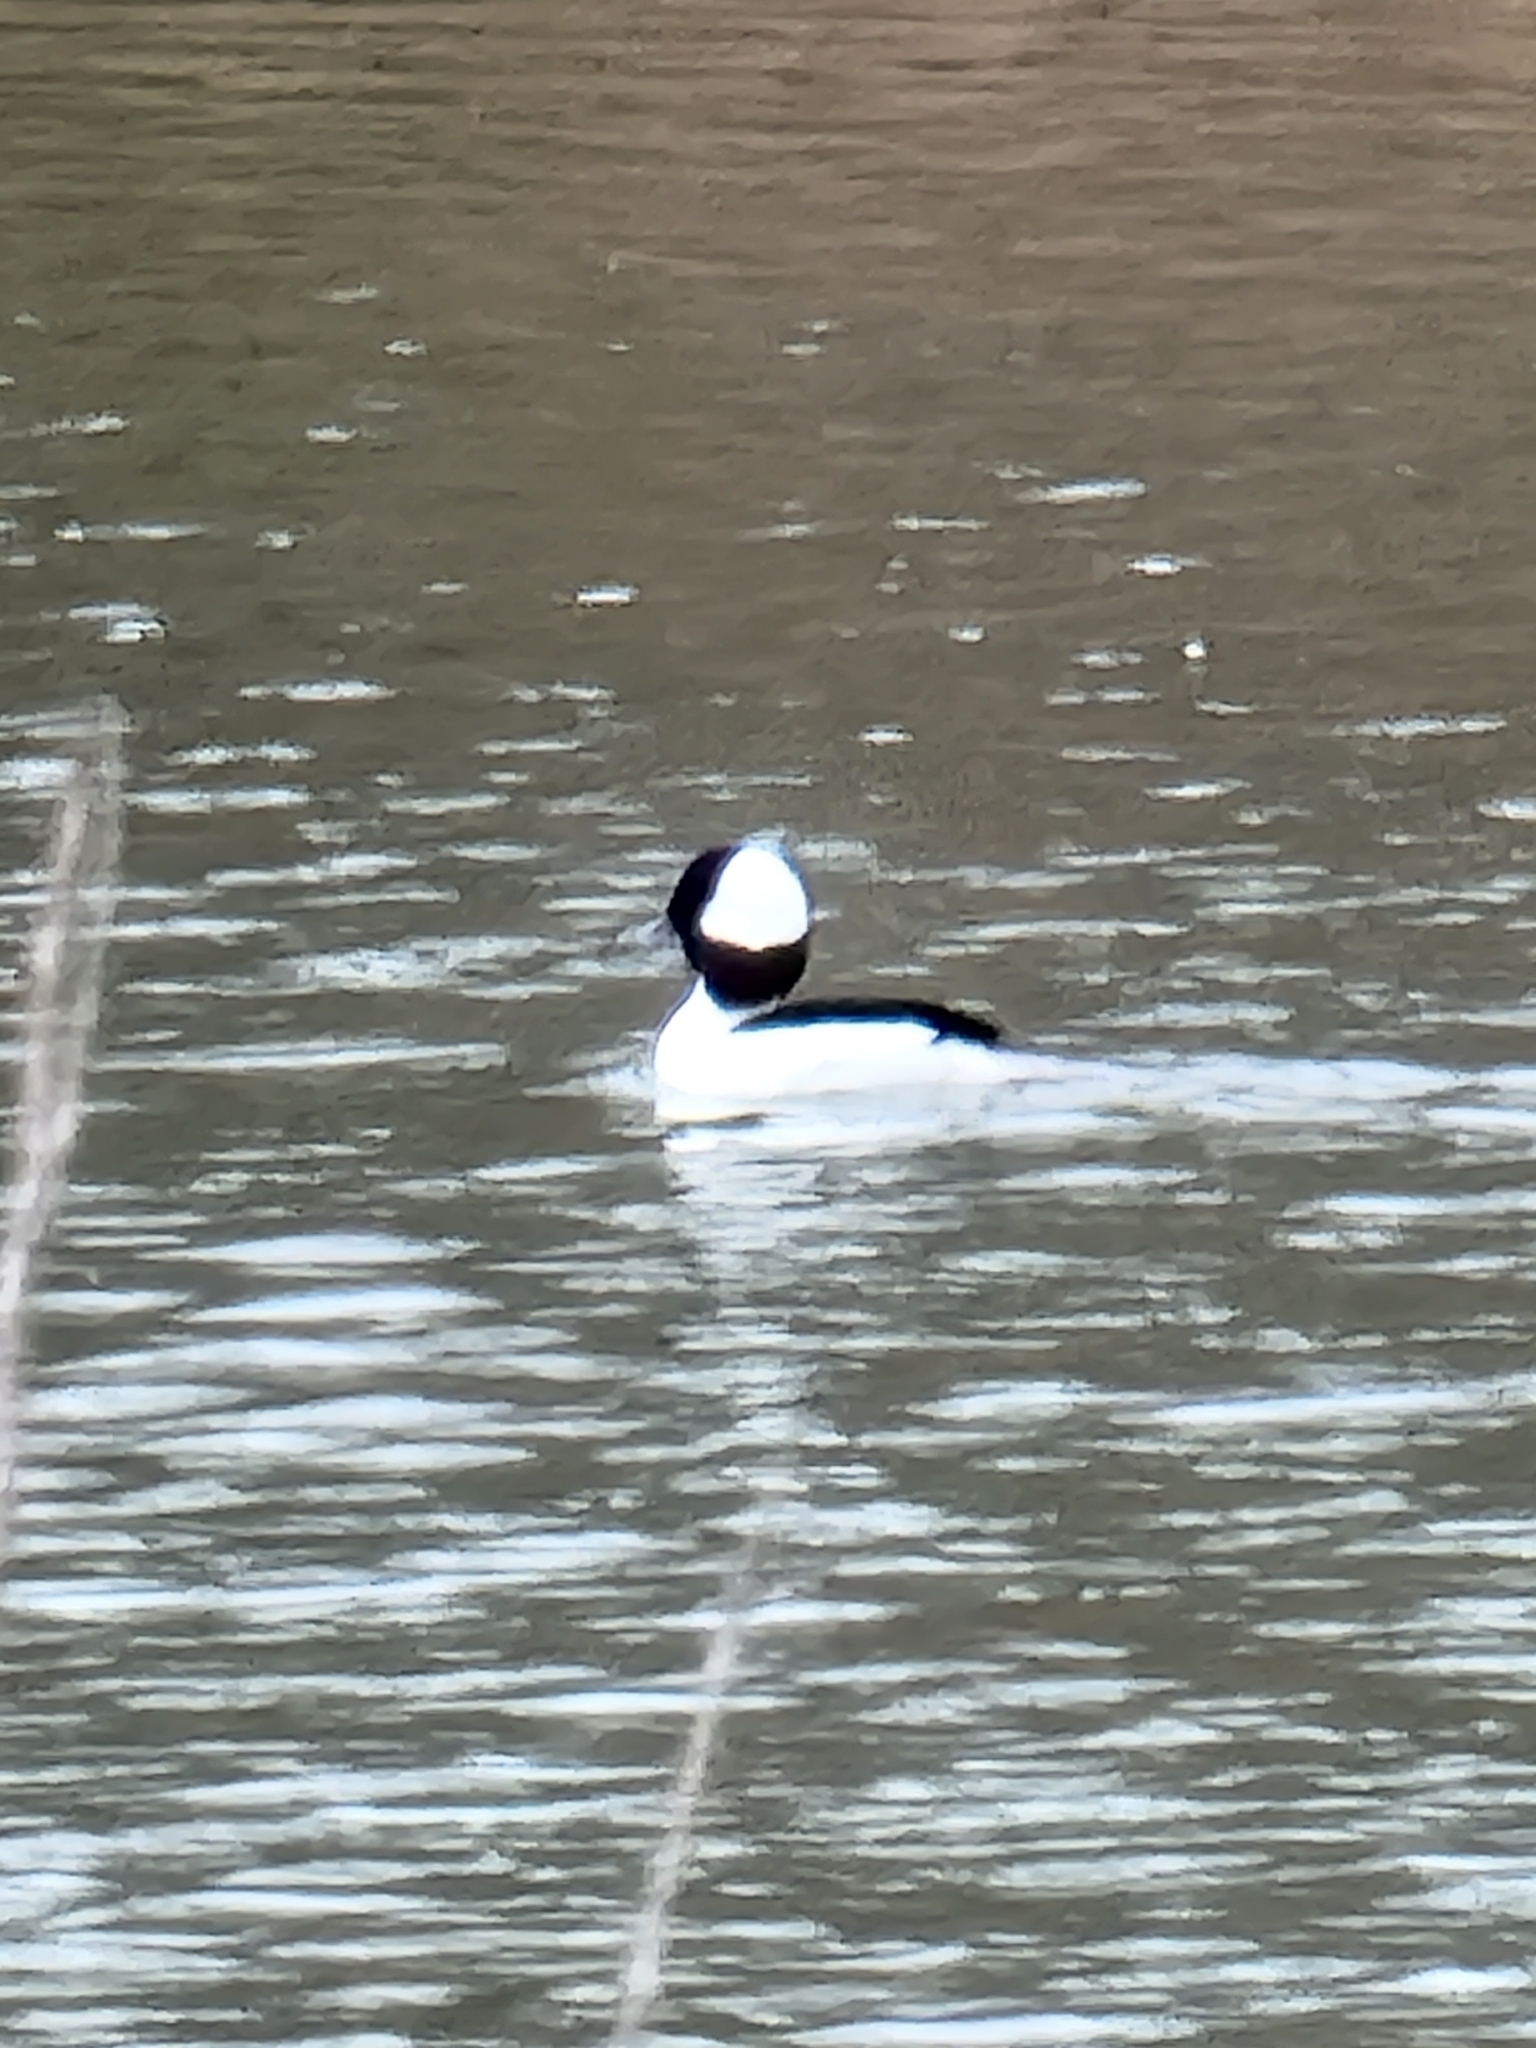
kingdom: Animalia
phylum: Chordata
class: Aves
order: Anseriformes
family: Anatidae
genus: Bucephala
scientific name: Bucephala albeola
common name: Bufflehead
